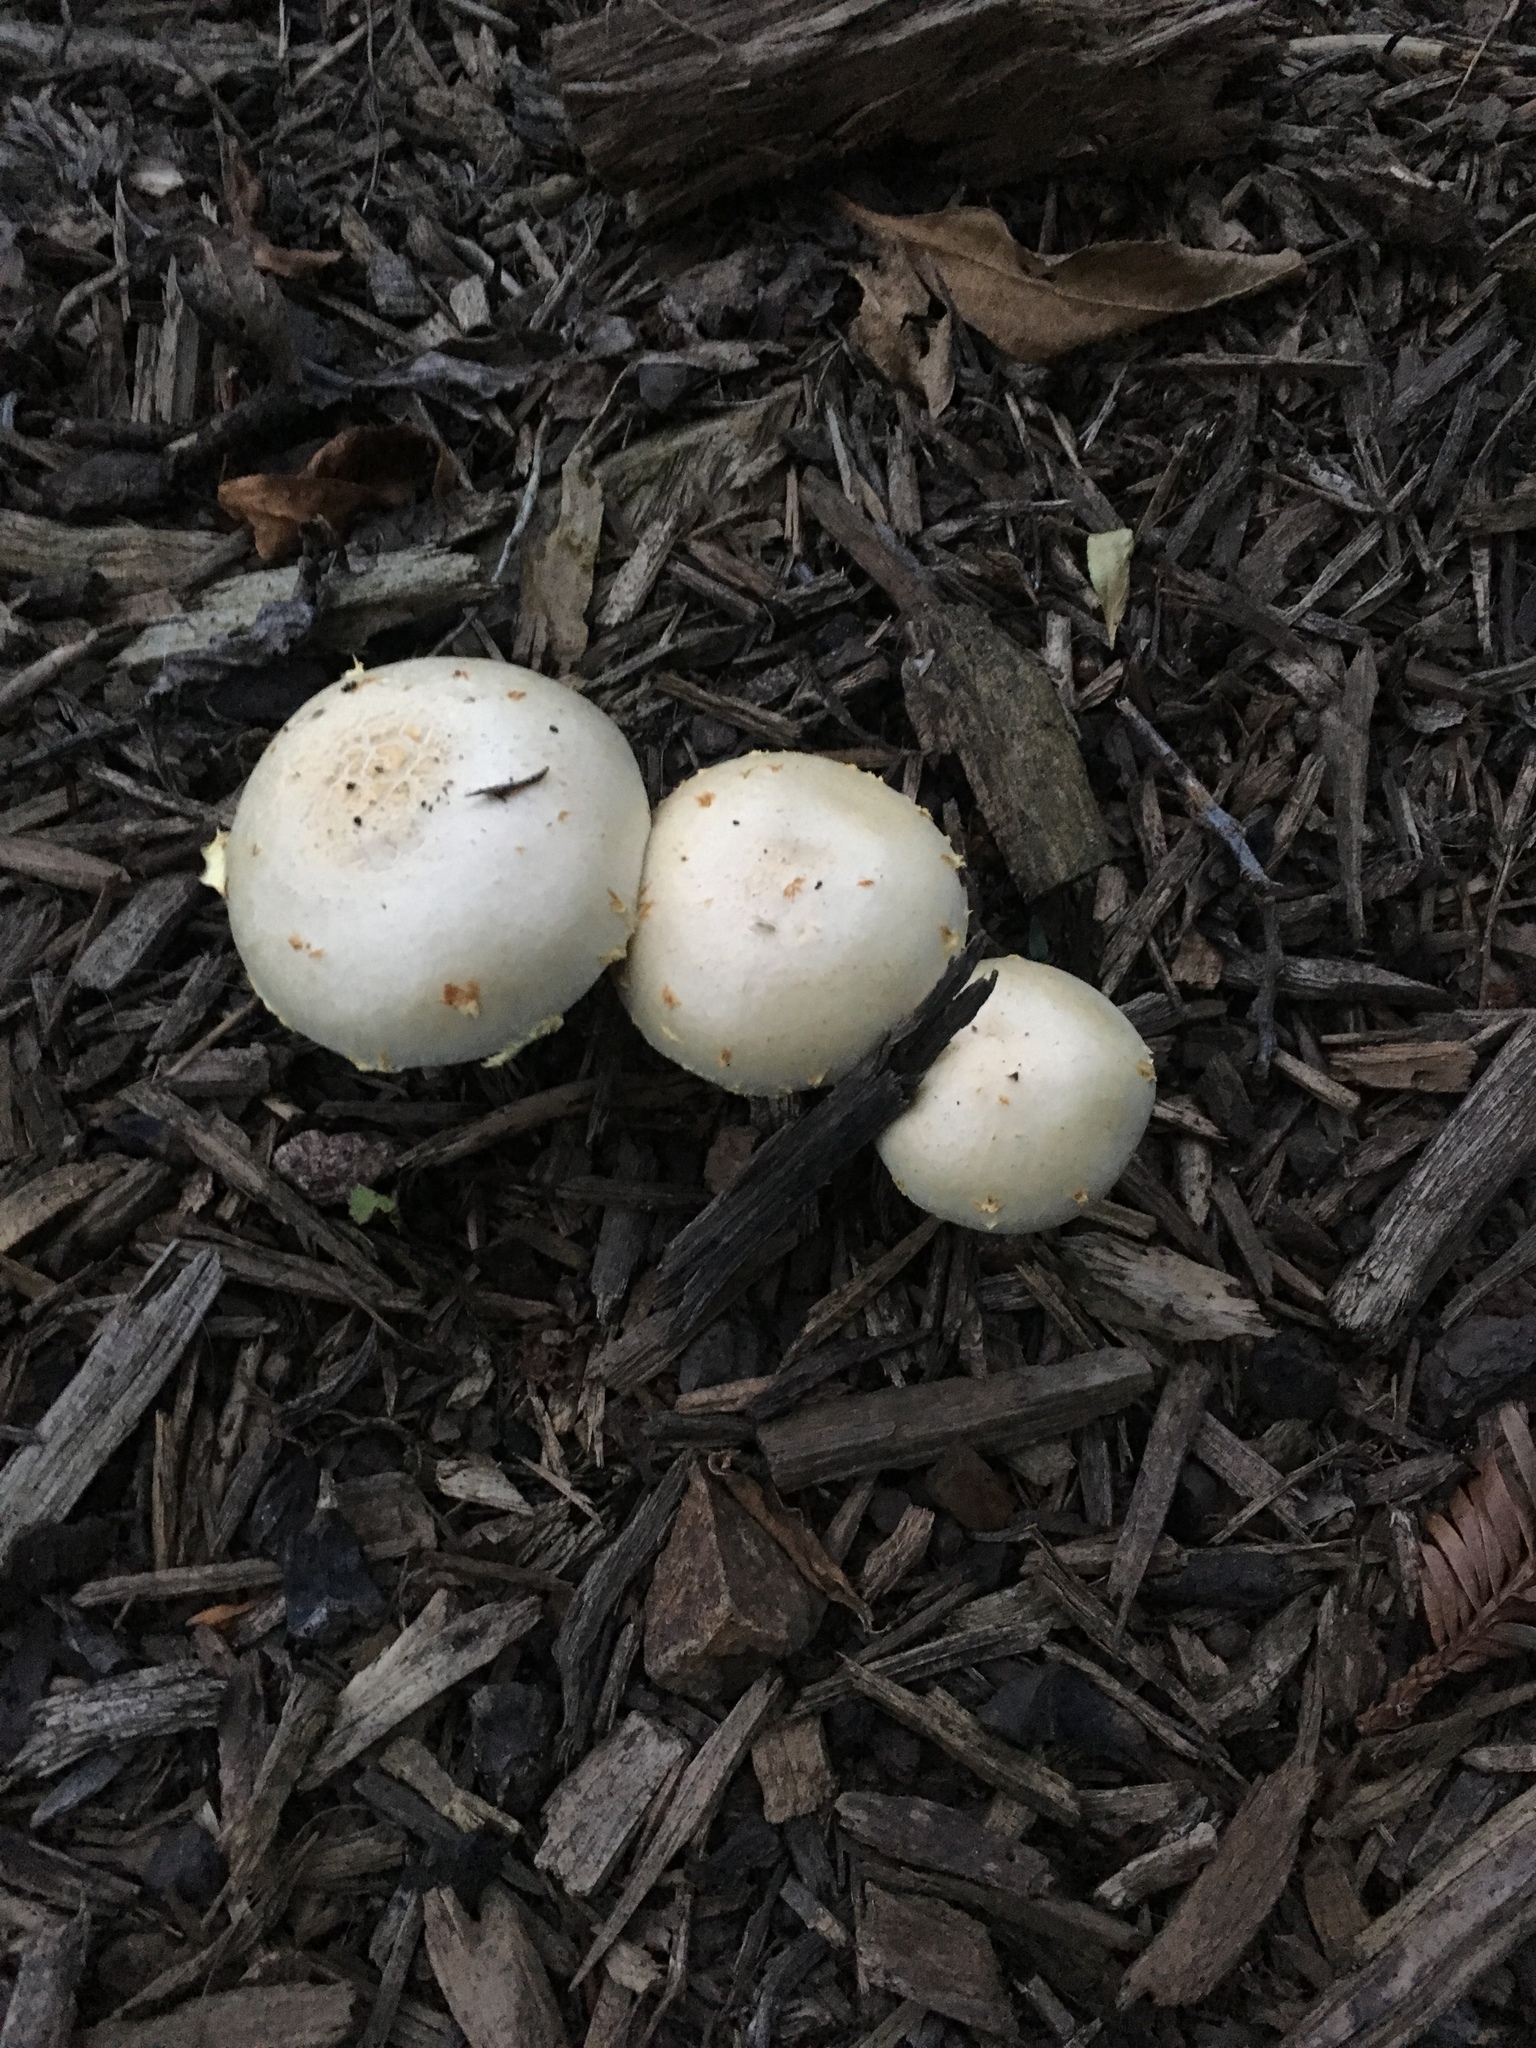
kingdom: Fungi
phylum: Basidiomycota
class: Agaricomycetes
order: Agaricales
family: Strophariaceae
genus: Leratiomyces
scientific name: Leratiomyces percevalii
